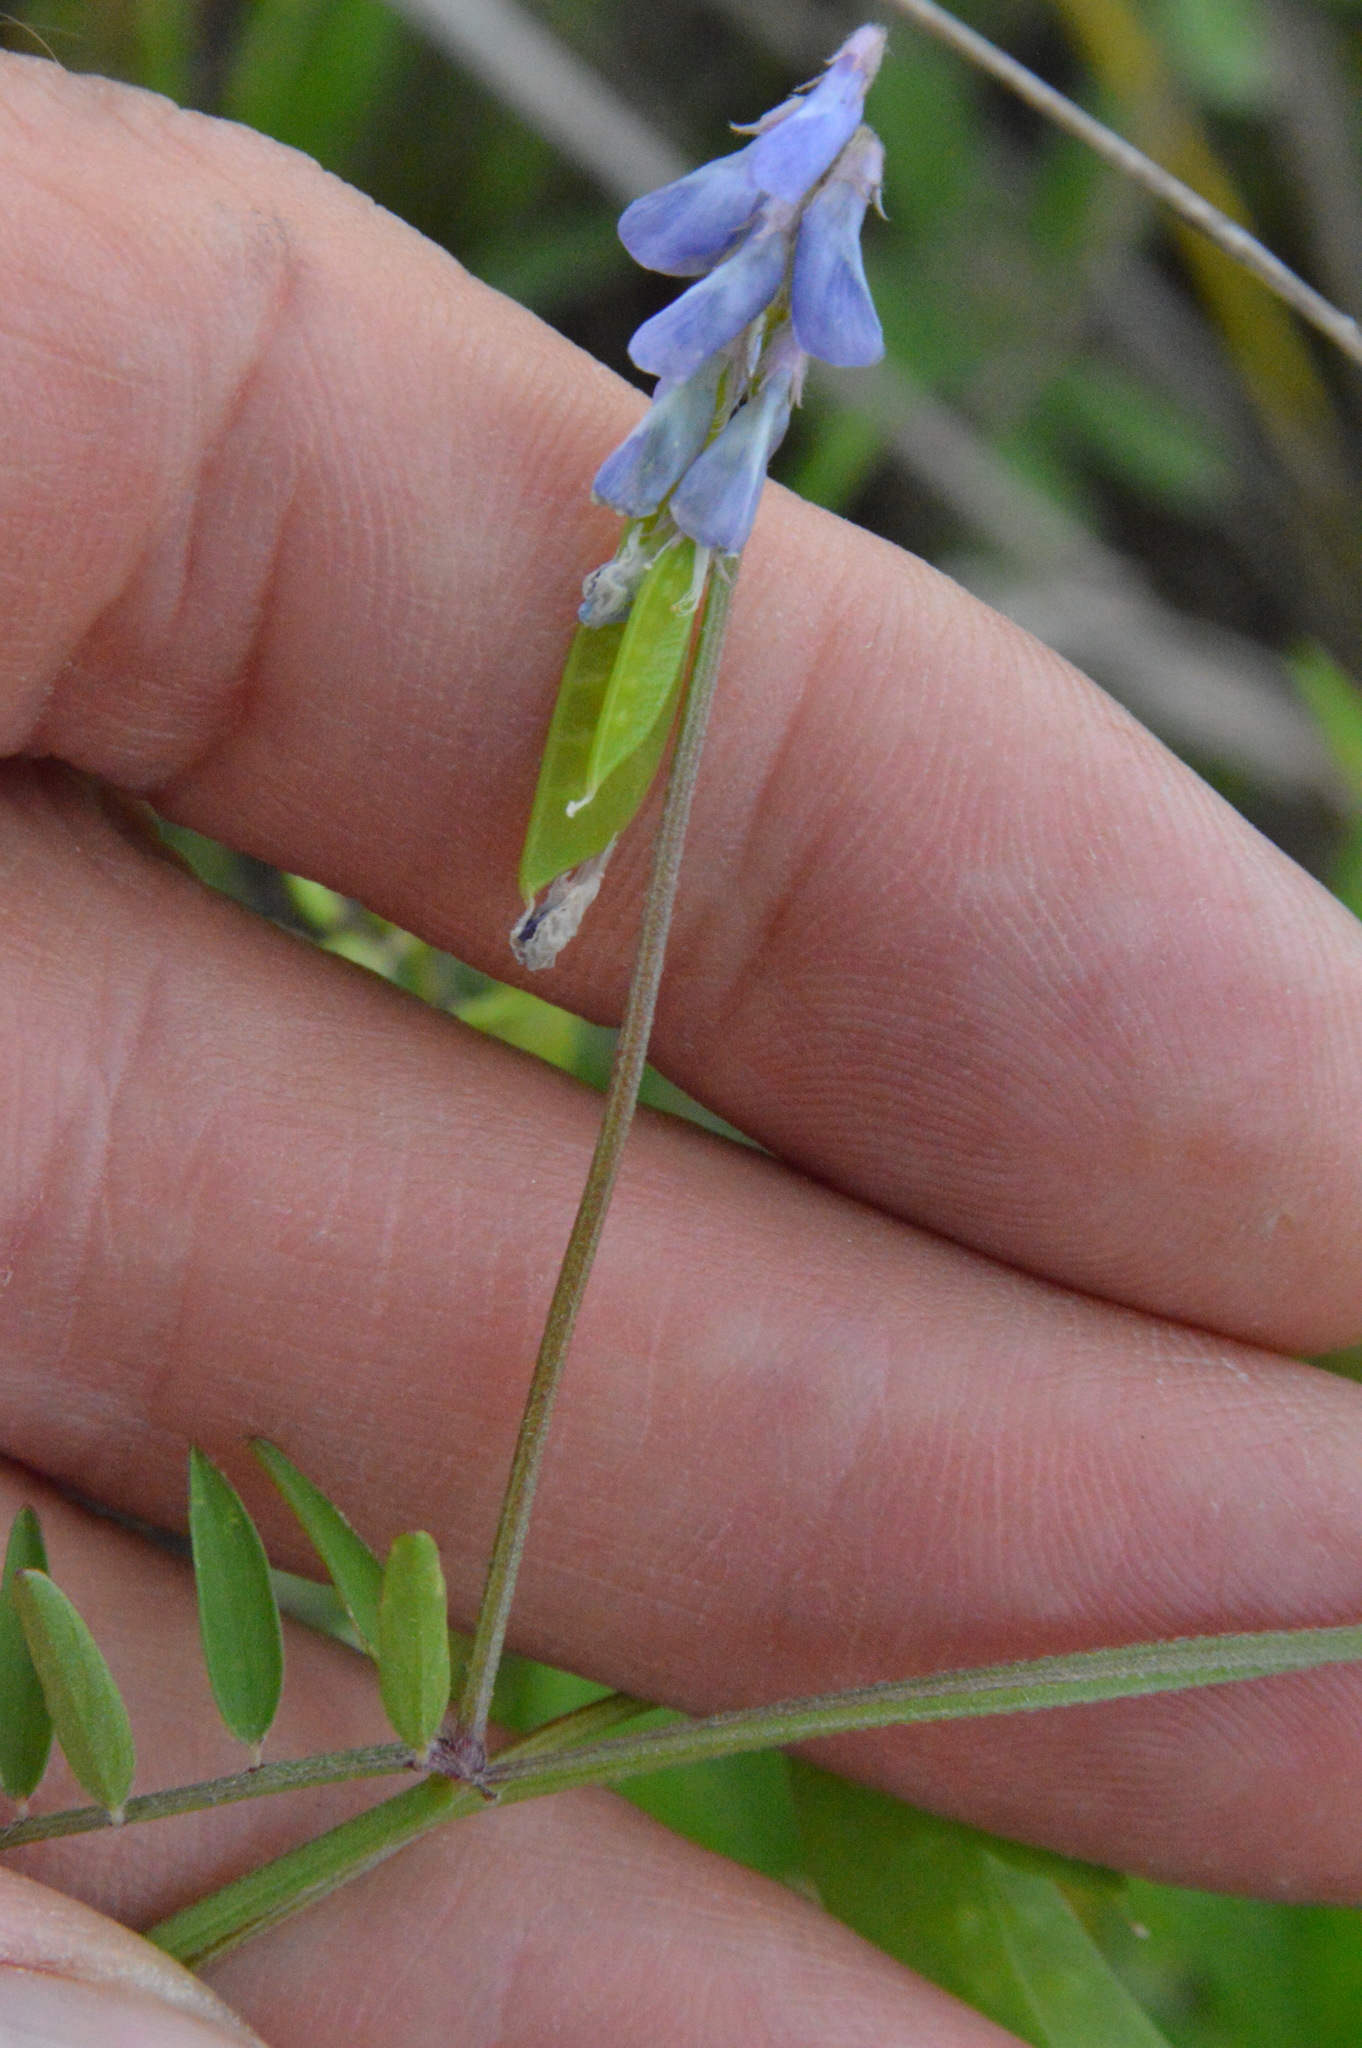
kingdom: Plantae
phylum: Tracheophyta
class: Magnoliopsida
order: Fabales
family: Fabaceae
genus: Vicia
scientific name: Vicia ludoviciana
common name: Louisiana vetch
